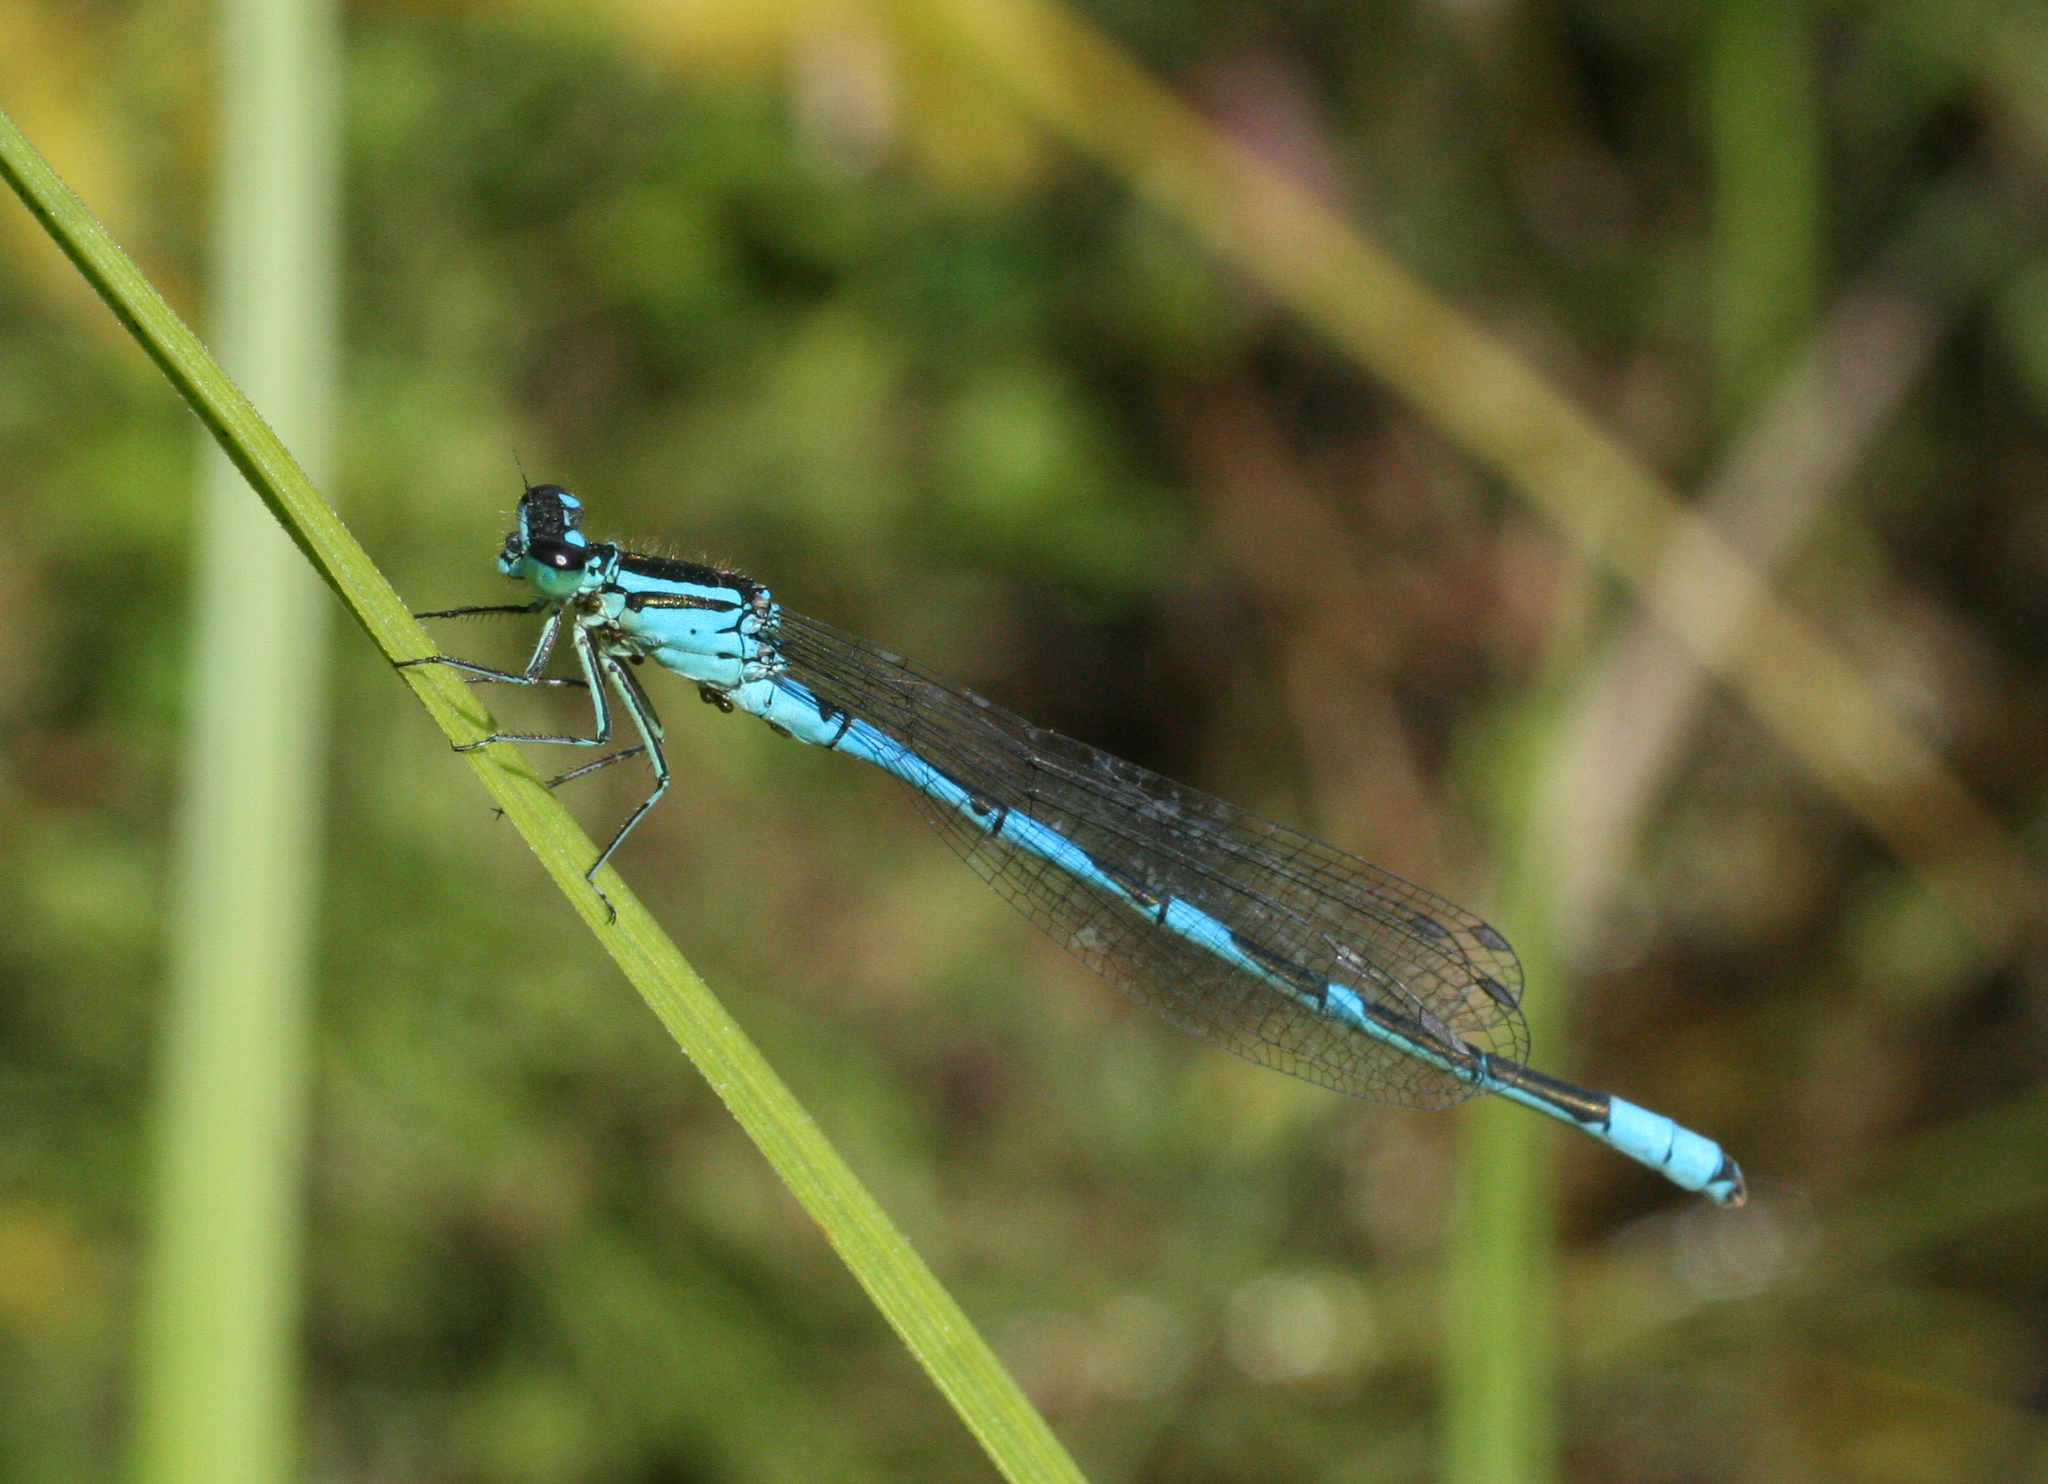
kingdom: Animalia
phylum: Arthropoda
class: Insecta
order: Odonata
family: Coenagrionidae
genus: Coenagrion
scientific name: Coenagrion lanceolatum
